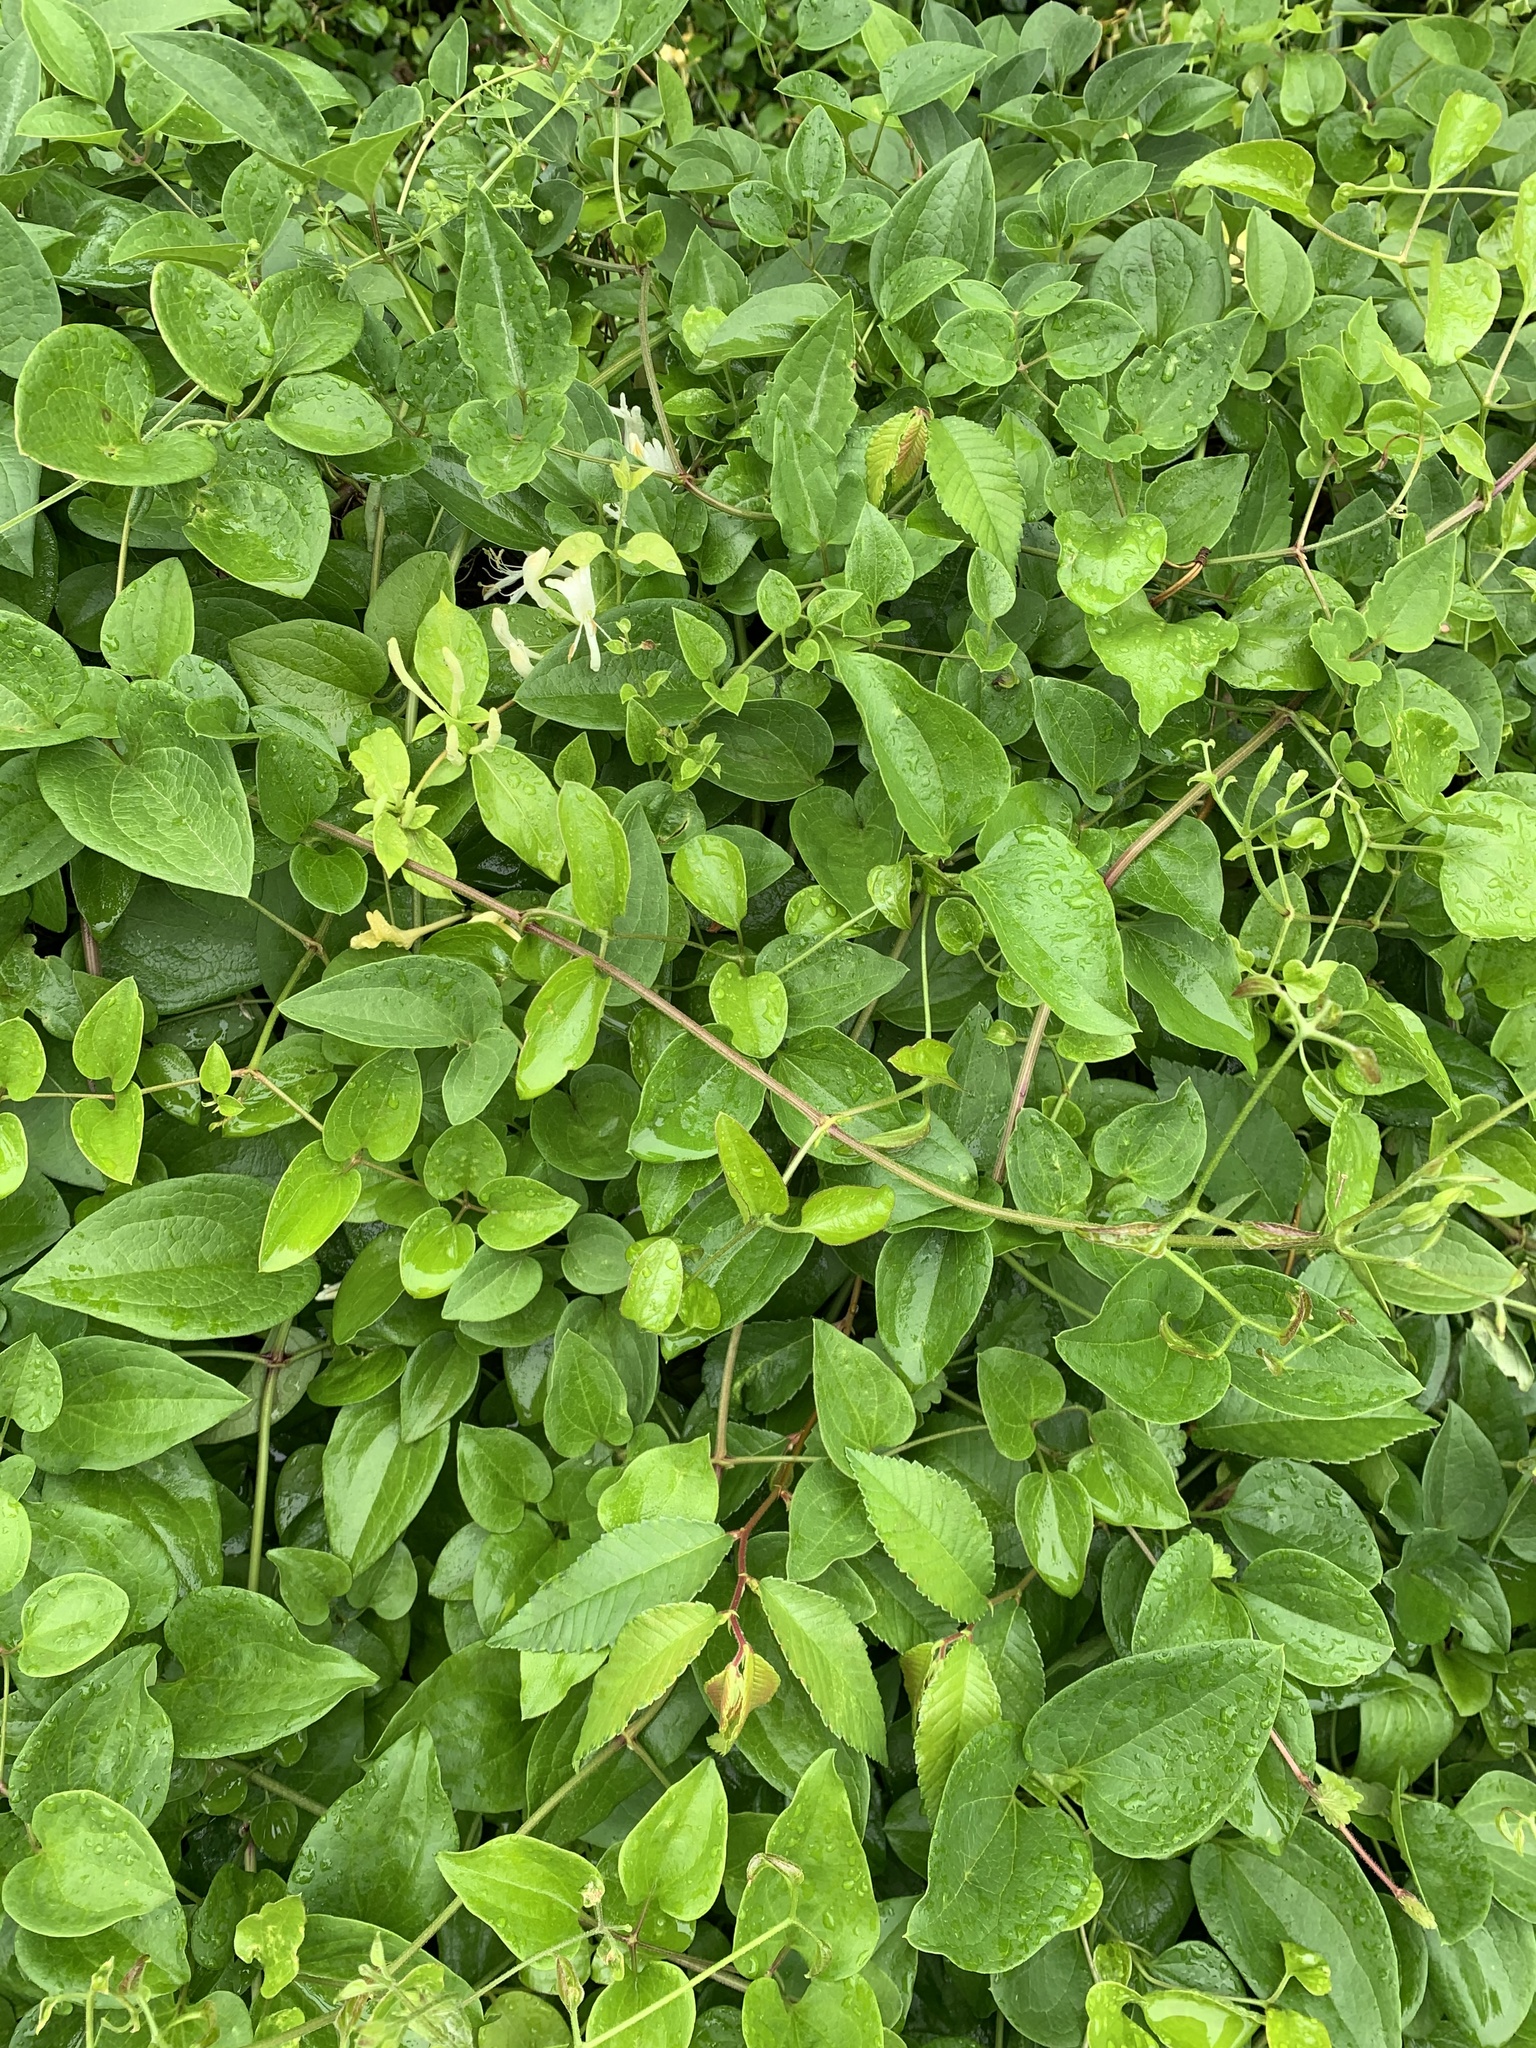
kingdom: Plantae
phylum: Tracheophyta
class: Magnoliopsida
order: Dipsacales
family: Caprifoliaceae
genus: Lonicera
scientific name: Lonicera japonica
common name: Japanese honeysuckle
